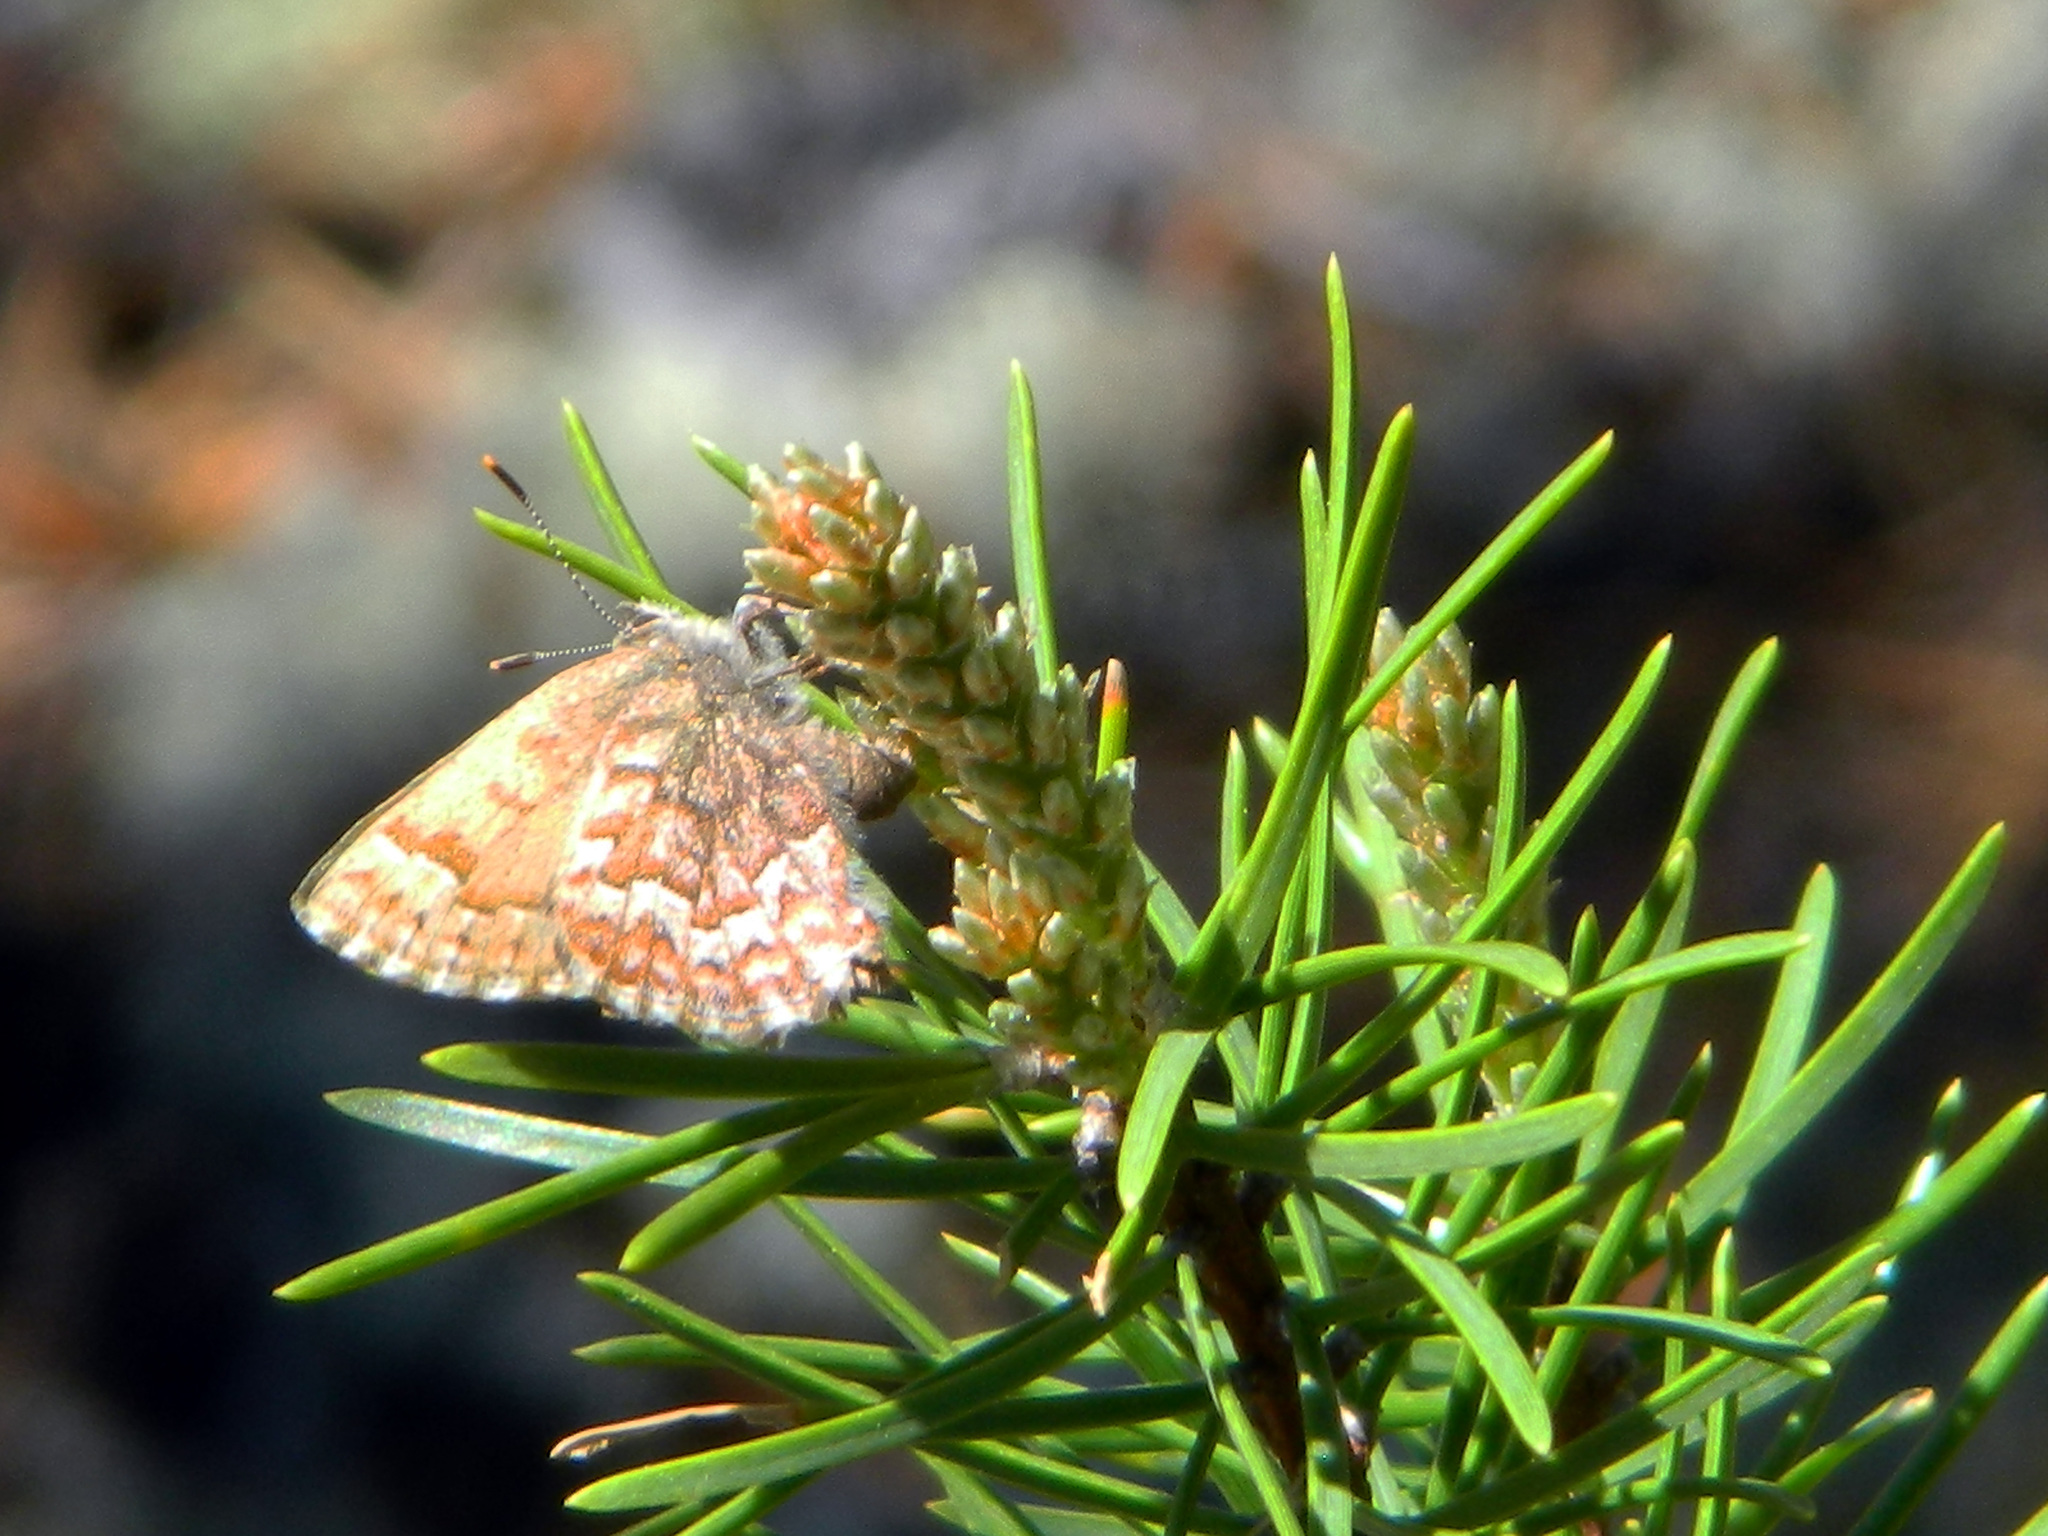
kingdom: Animalia
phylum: Arthropoda
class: Insecta
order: Lepidoptera
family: Lycaenidae
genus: Incisalia
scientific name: Incisalia niphon
